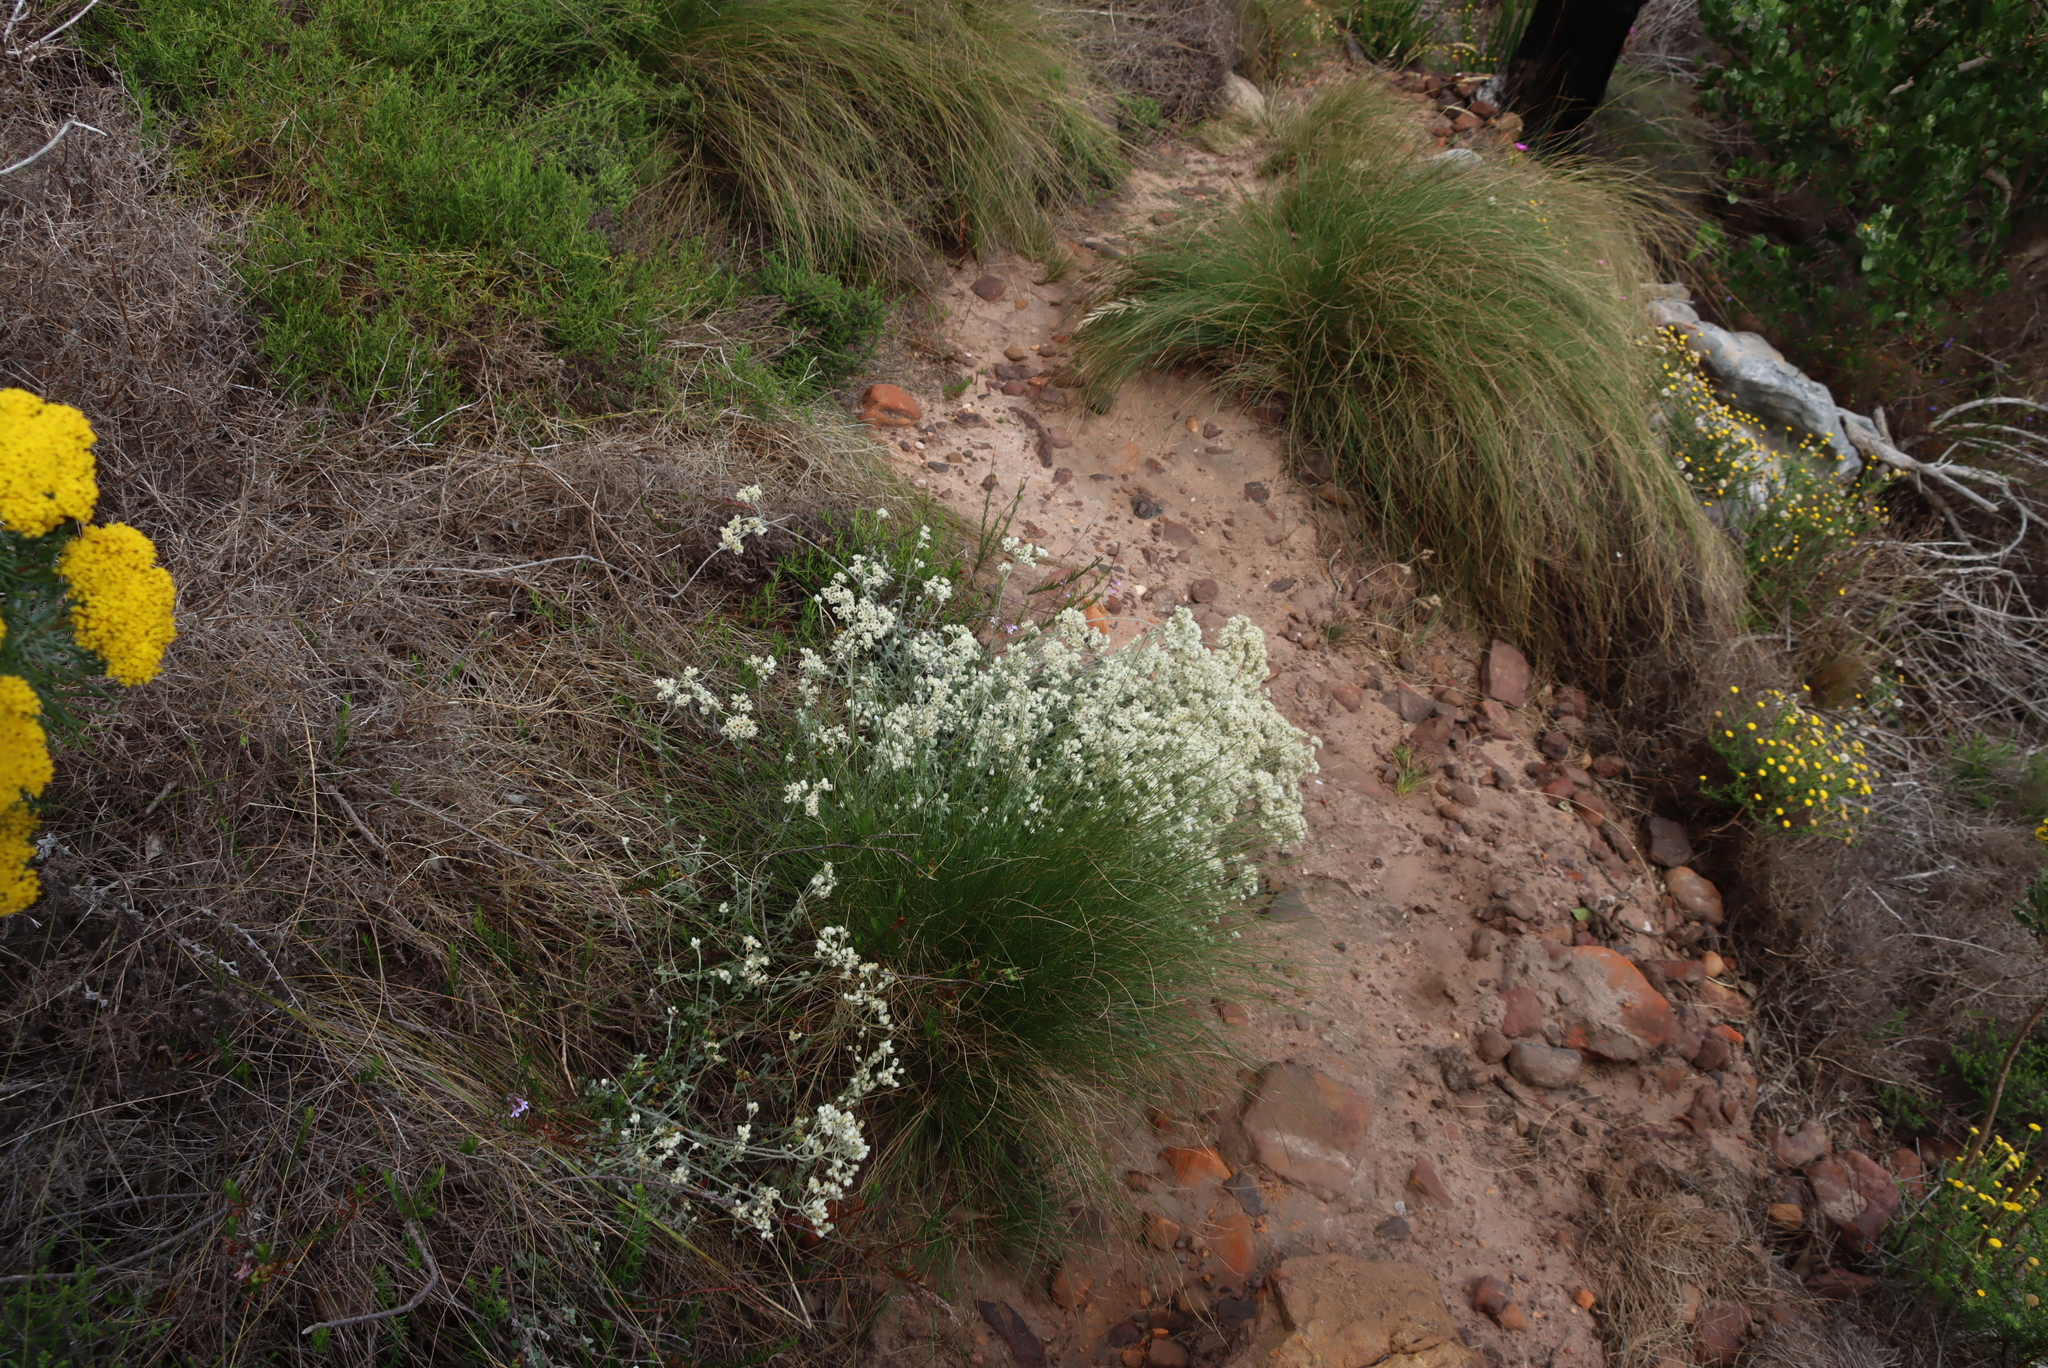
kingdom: Plantae
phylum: Tracheophyta
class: Magnoliopsida
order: Asterales
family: Asteraceae
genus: Helichrysum
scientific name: Helichrysum pandurifolium
